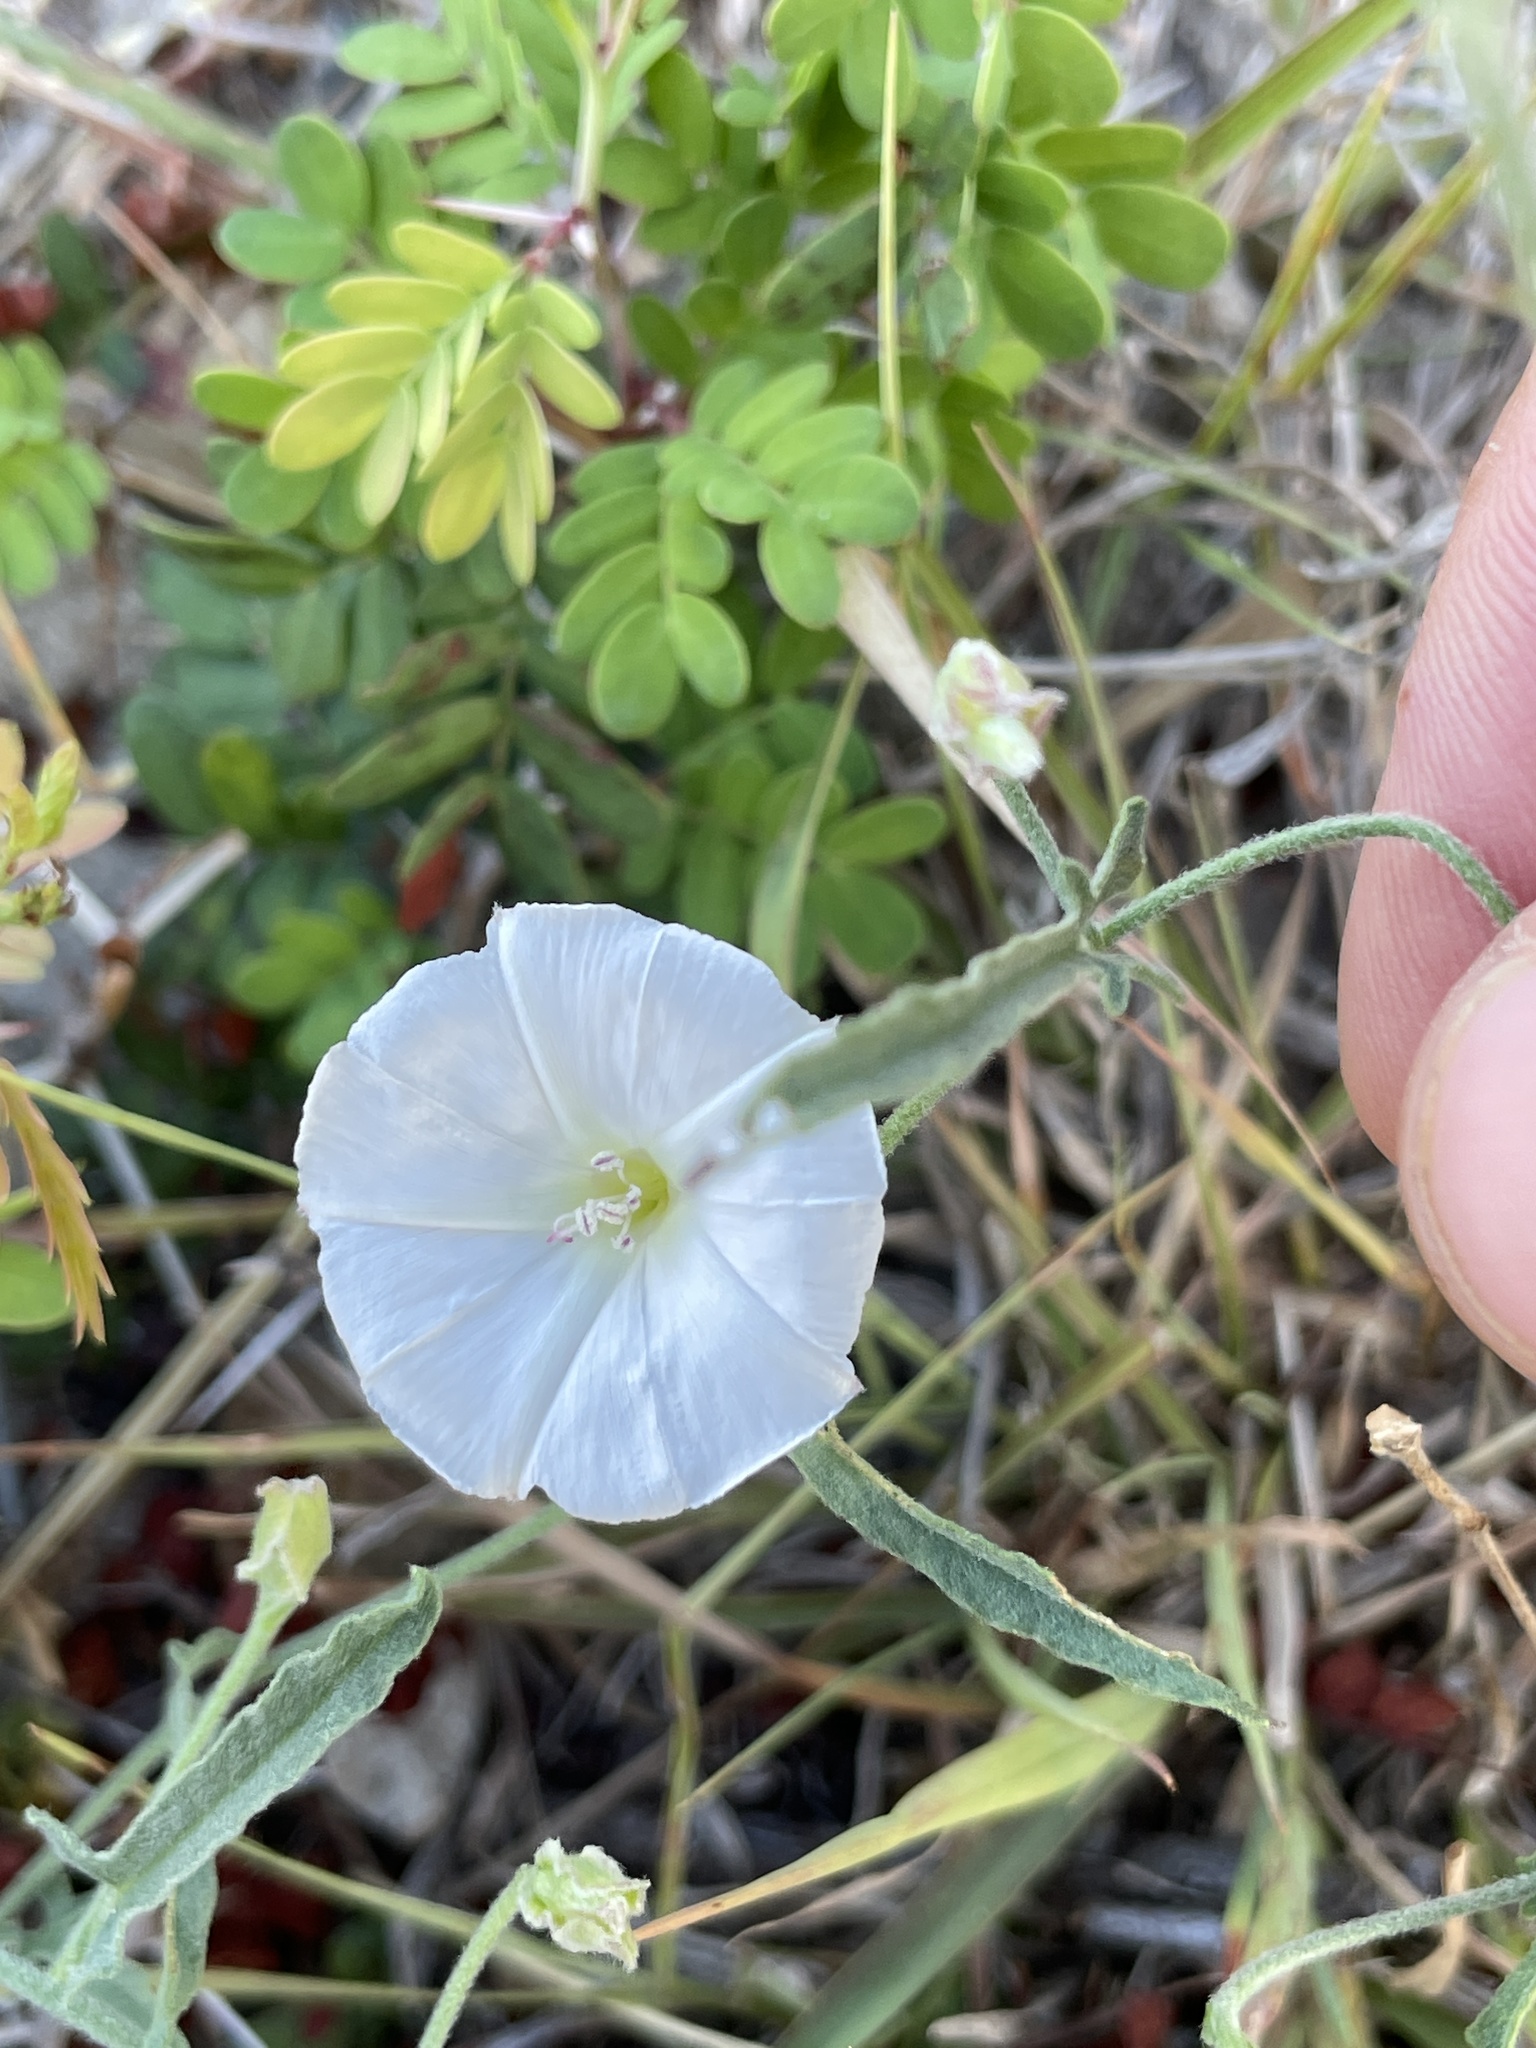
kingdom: Plantae
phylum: Tracheophyta
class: Magnoliopsida
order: Solanales
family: Convolvulaceae
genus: Convolvulus
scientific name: Convolvulus equitans
